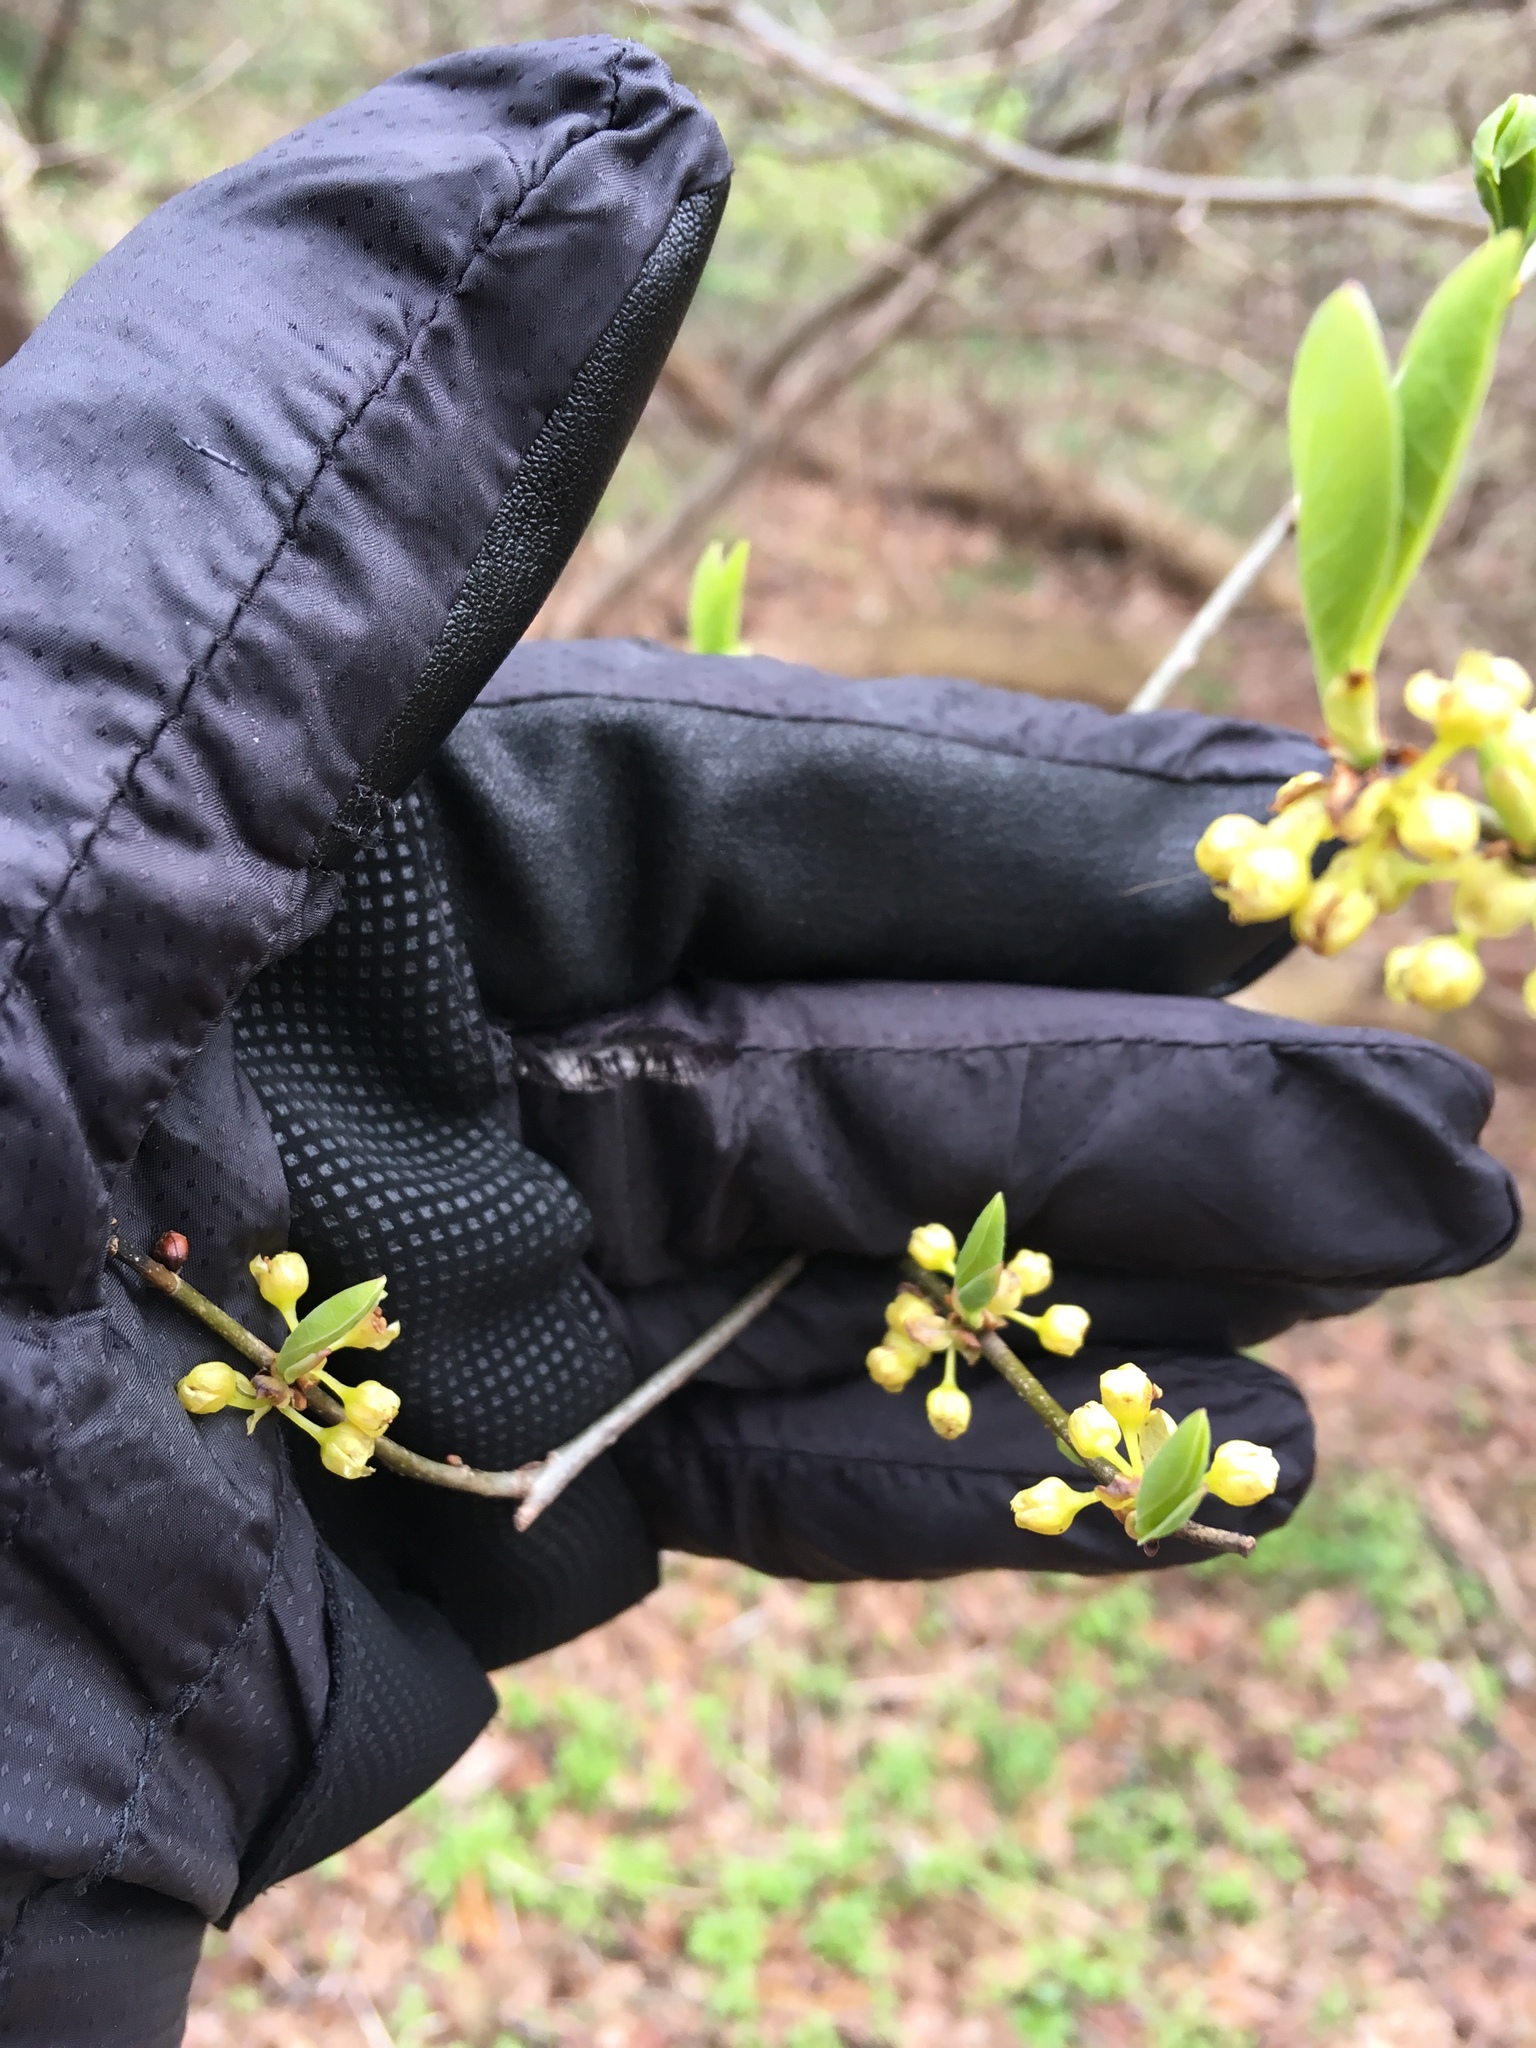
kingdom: Plantae
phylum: Tracheophyta
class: Magnoliopsida
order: Laurales
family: Lauraceae
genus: Lindera
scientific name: Lindera benzoin
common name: Spicebush
